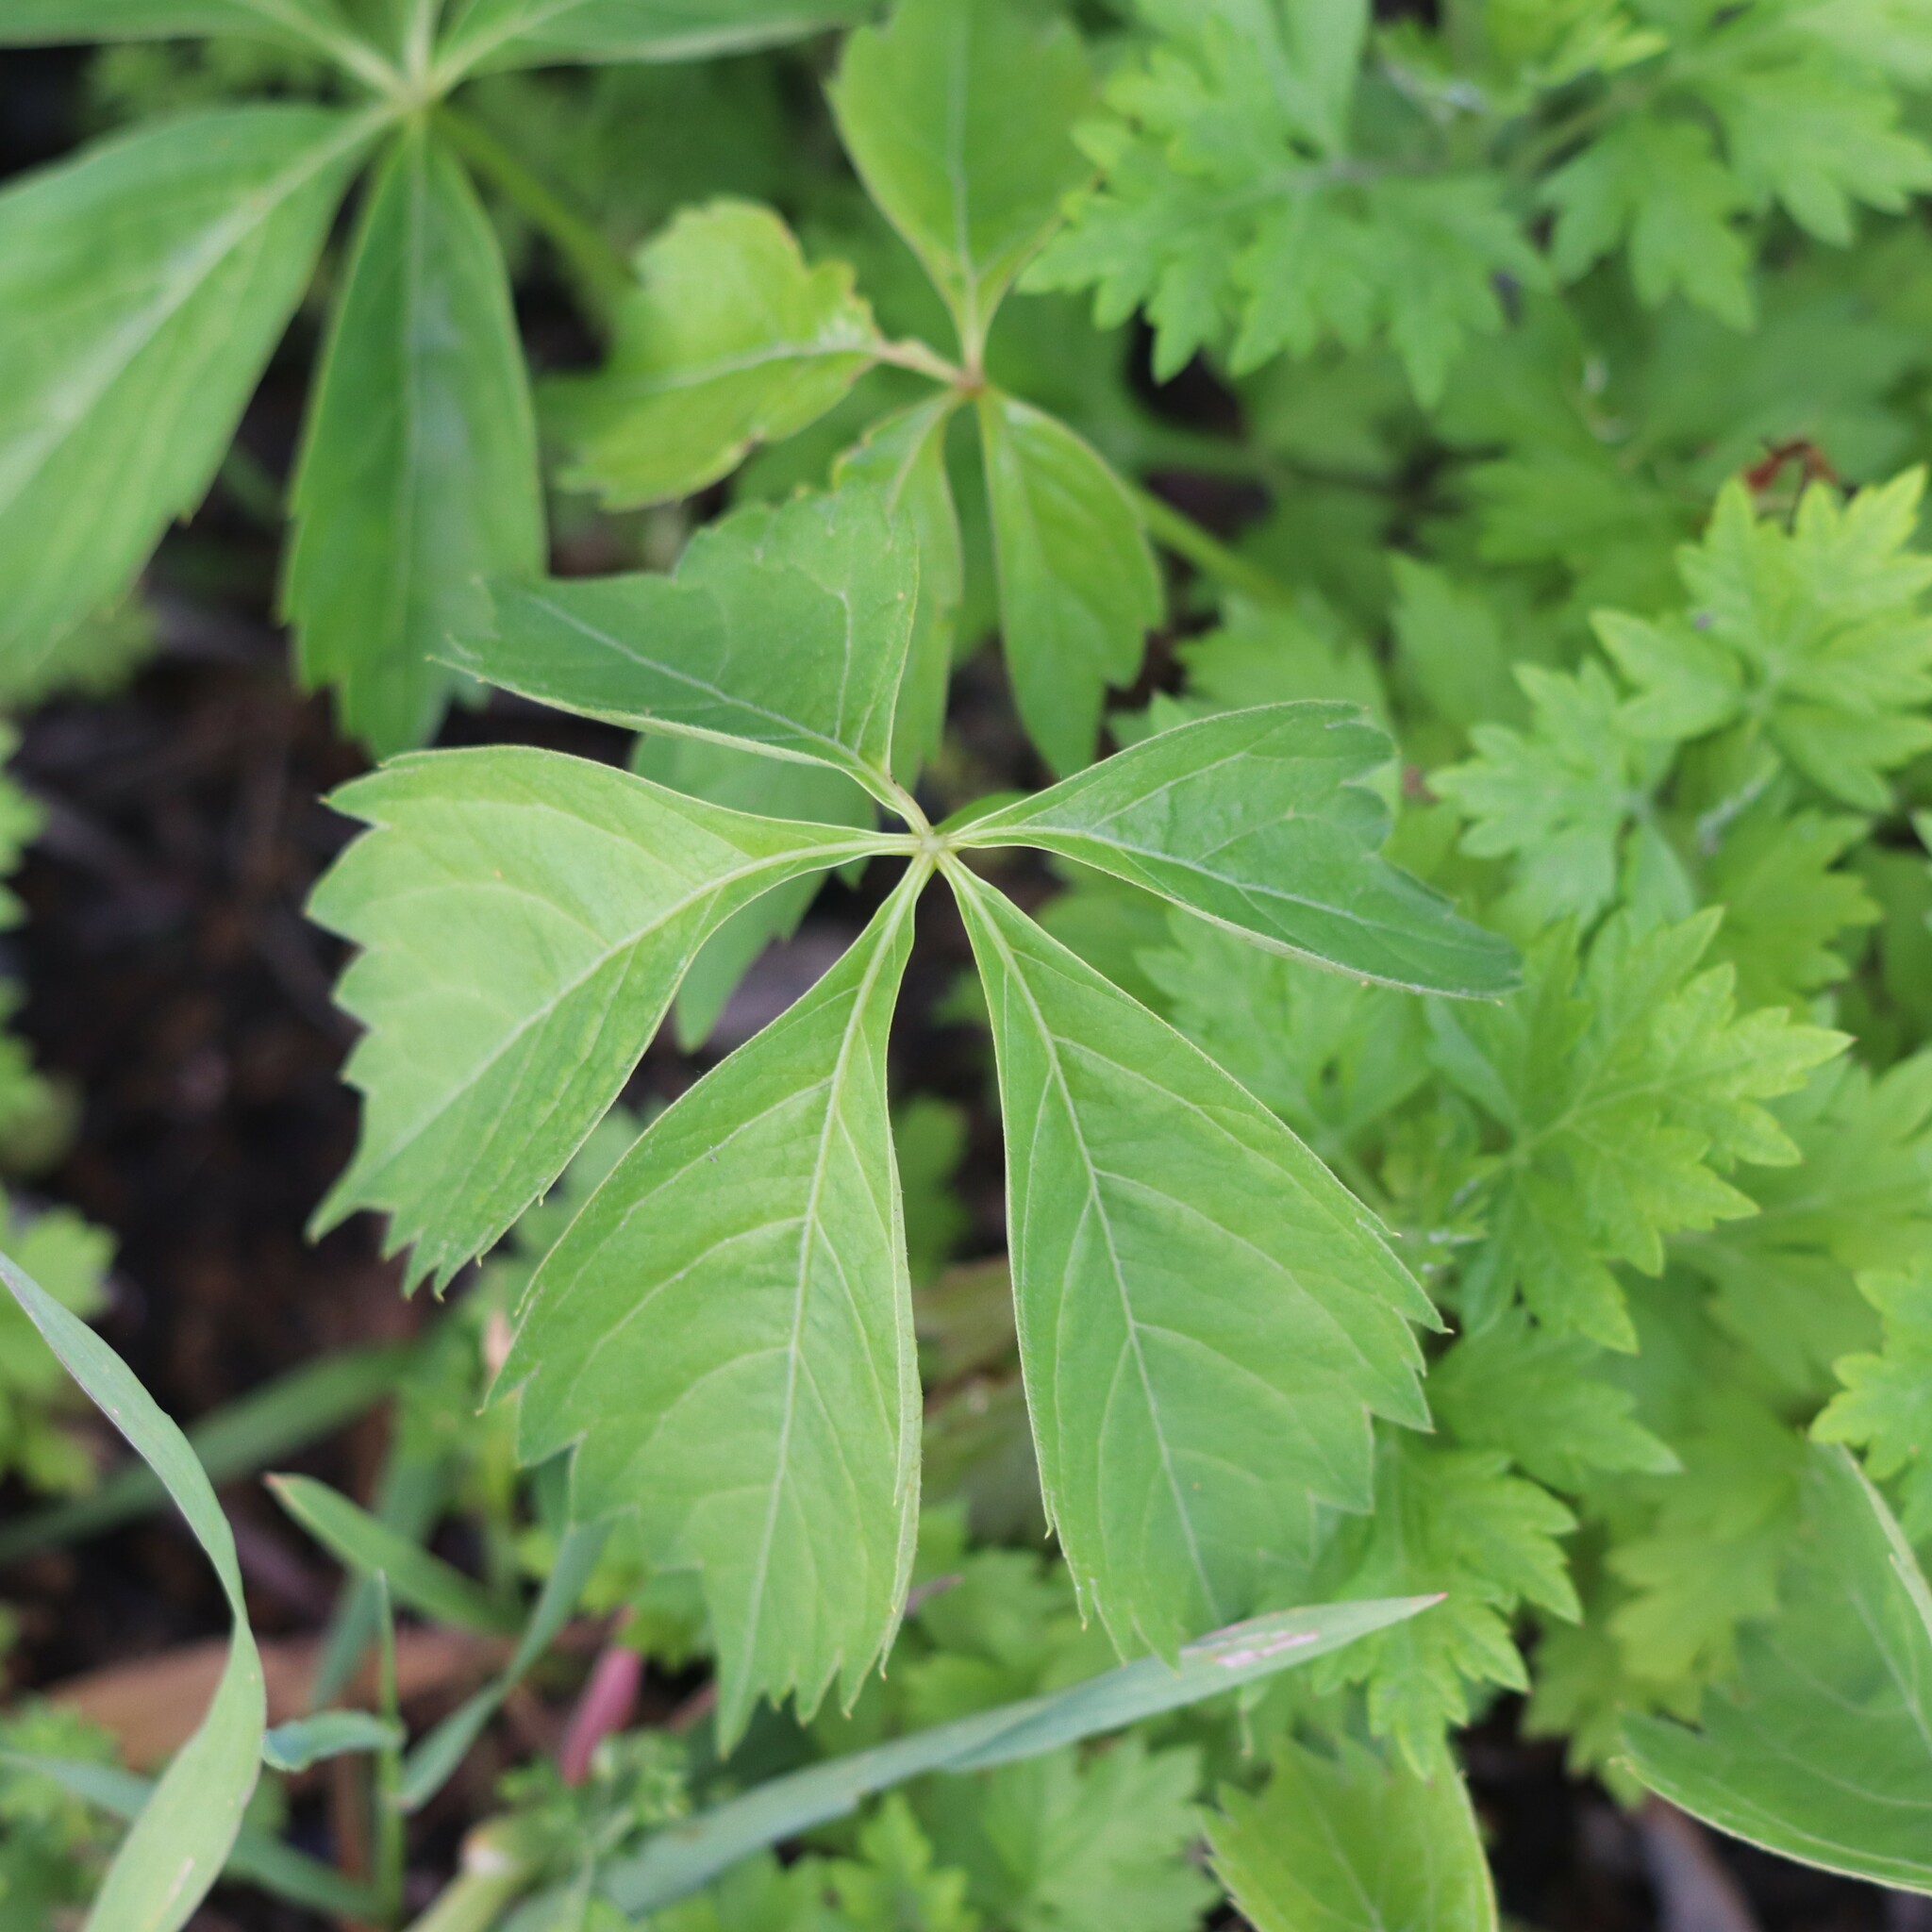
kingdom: Plantae
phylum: Tracheophyta
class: Magnoliopsida
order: Vitales
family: Vitaceae
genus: Parthenocissus
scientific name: Parthenocissus quinquefolia
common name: Virginia-creeper
